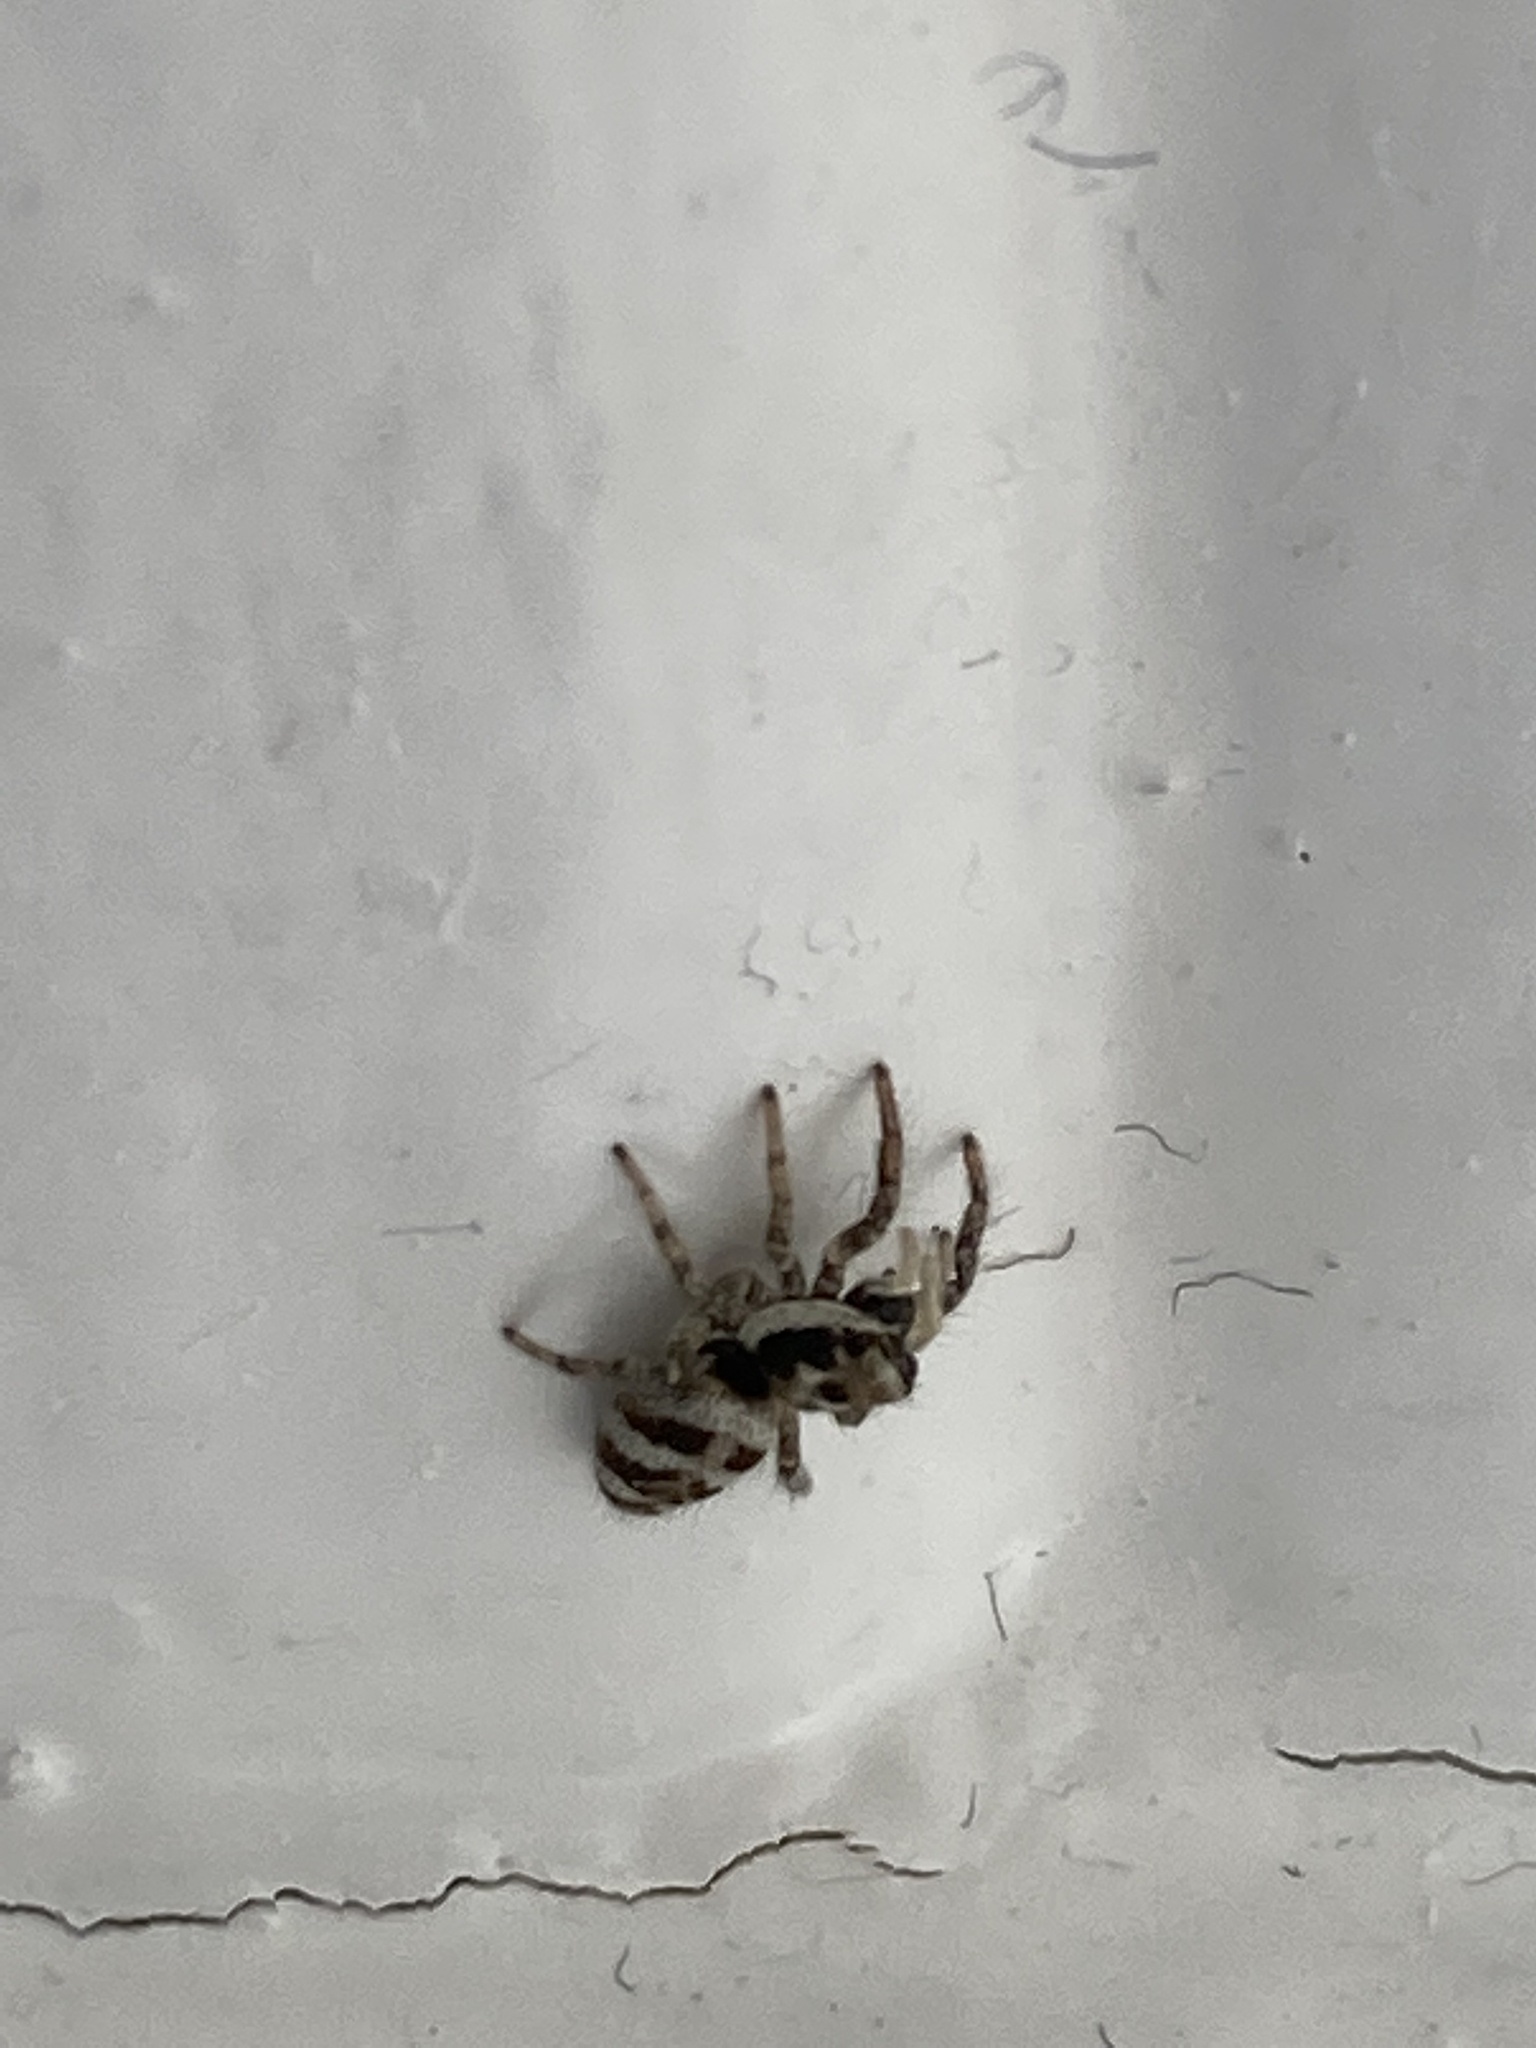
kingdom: Animalia
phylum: Arthropoda
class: Arachnida
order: Araneae
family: Salticidae
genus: Salticus
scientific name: Salticus scenicus
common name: Zebra jumper
